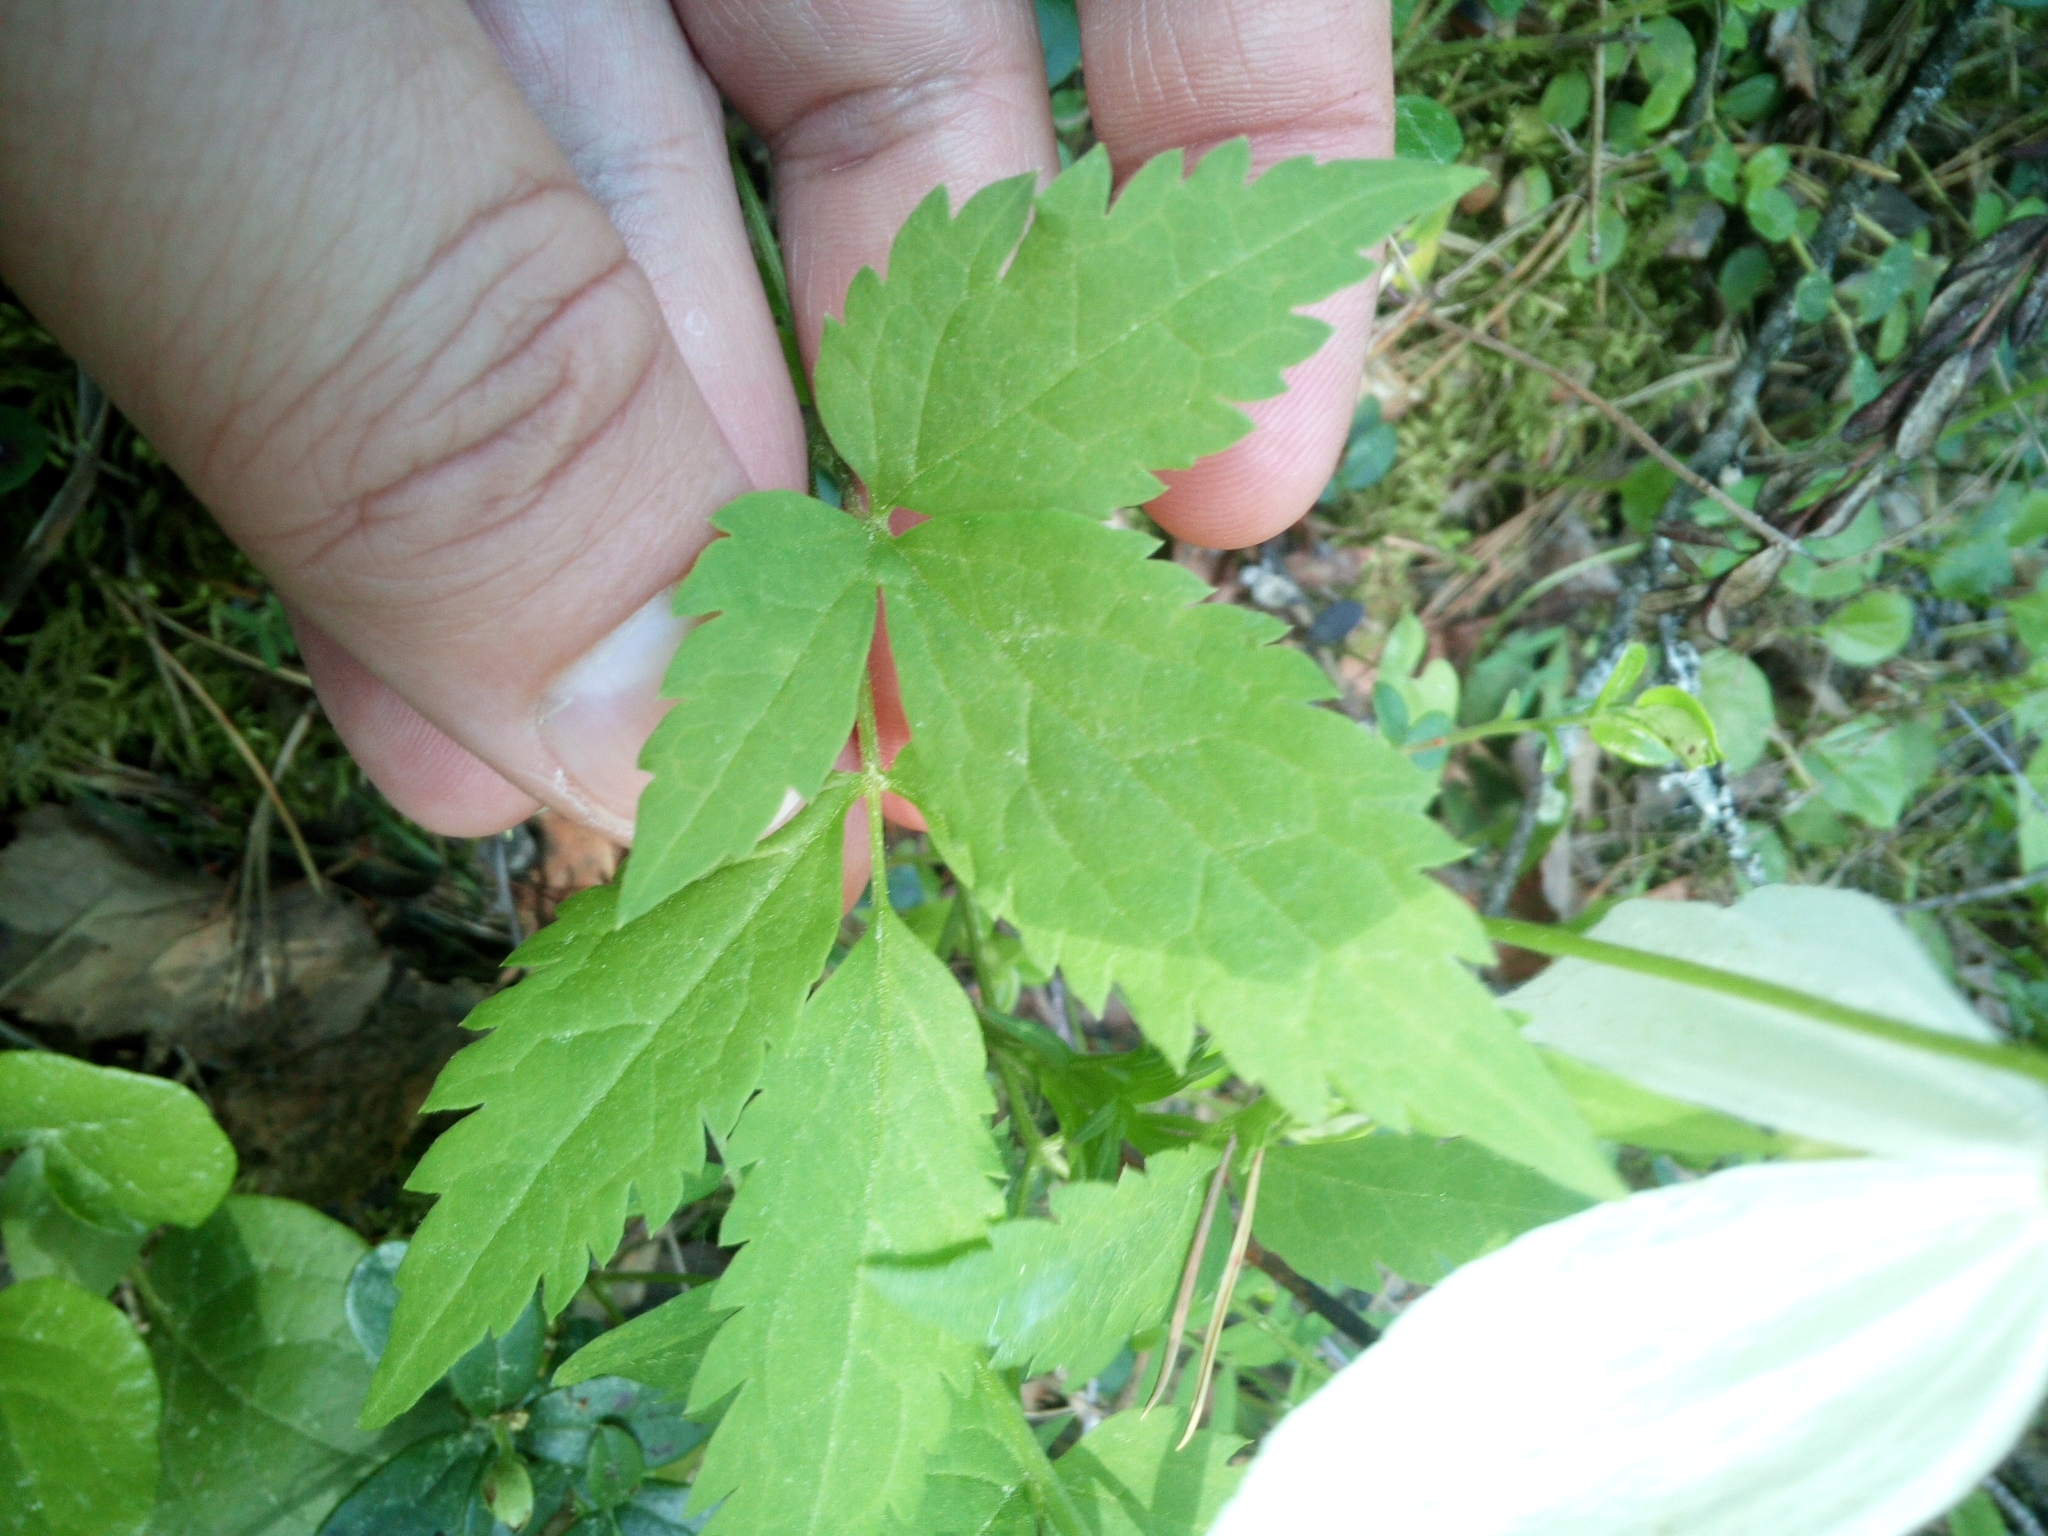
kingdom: Plantae
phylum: Tracheophyta
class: Magnoliopsida
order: Ranunculales
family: Ranunculaceae
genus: Clematis
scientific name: Clematis sibirica
